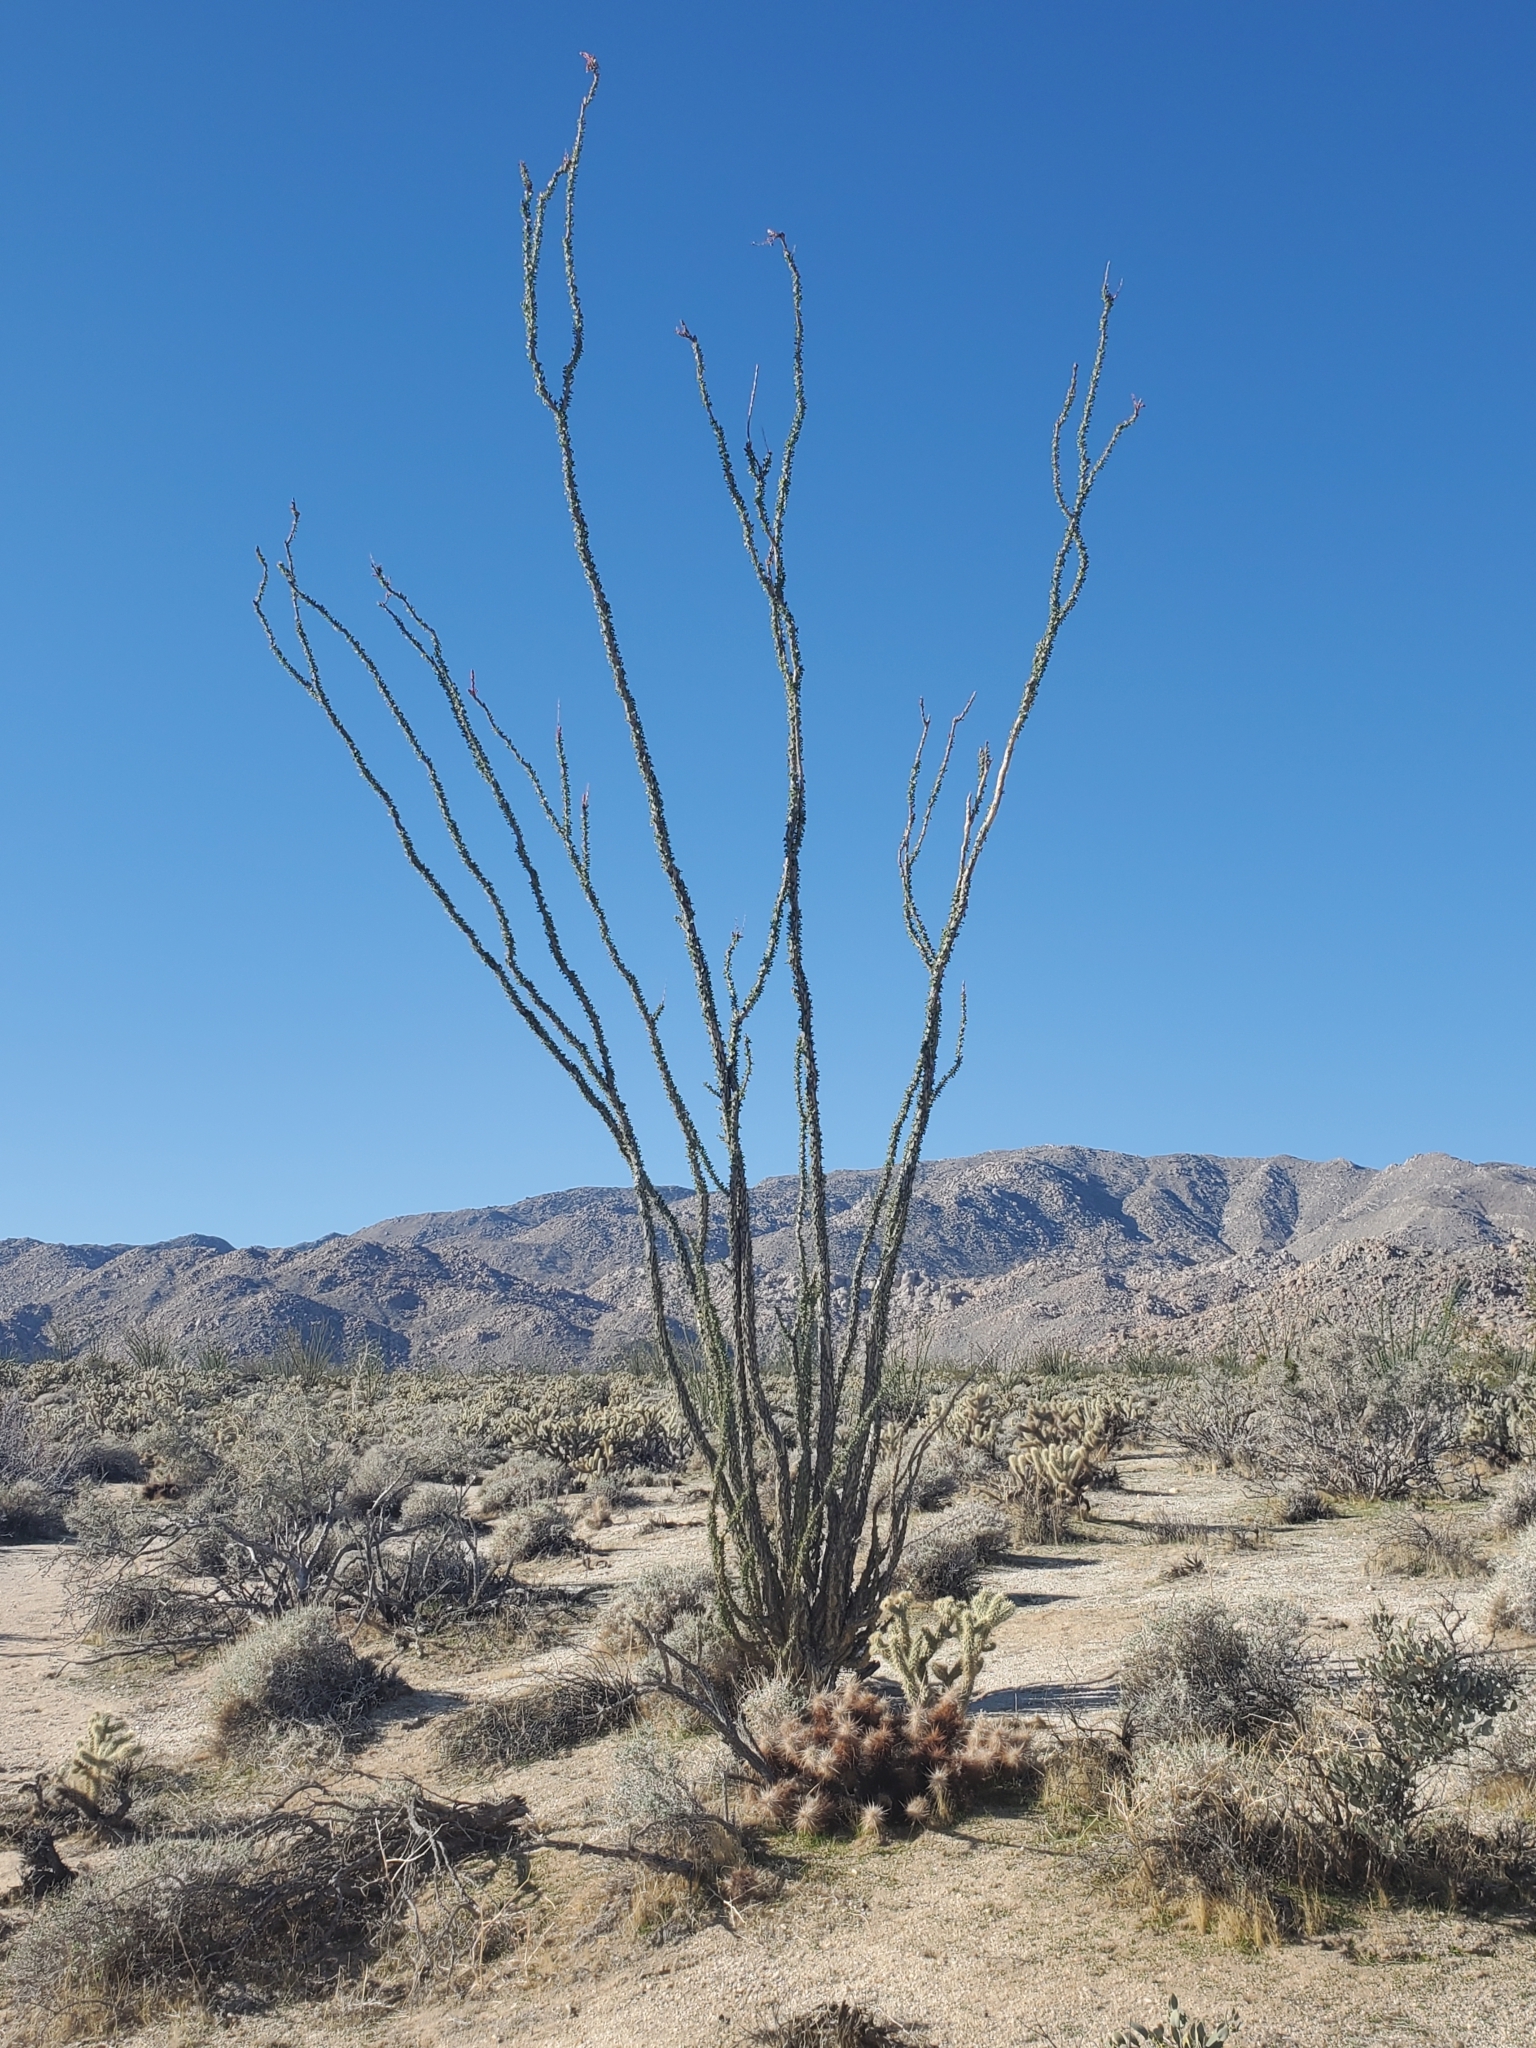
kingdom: Plantae
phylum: Tracheophyta
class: Magnoliopsida
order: Ericales
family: Fouquieriaceae
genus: Fouquieria
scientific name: Fouquieria splendens
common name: Vine-cactus
